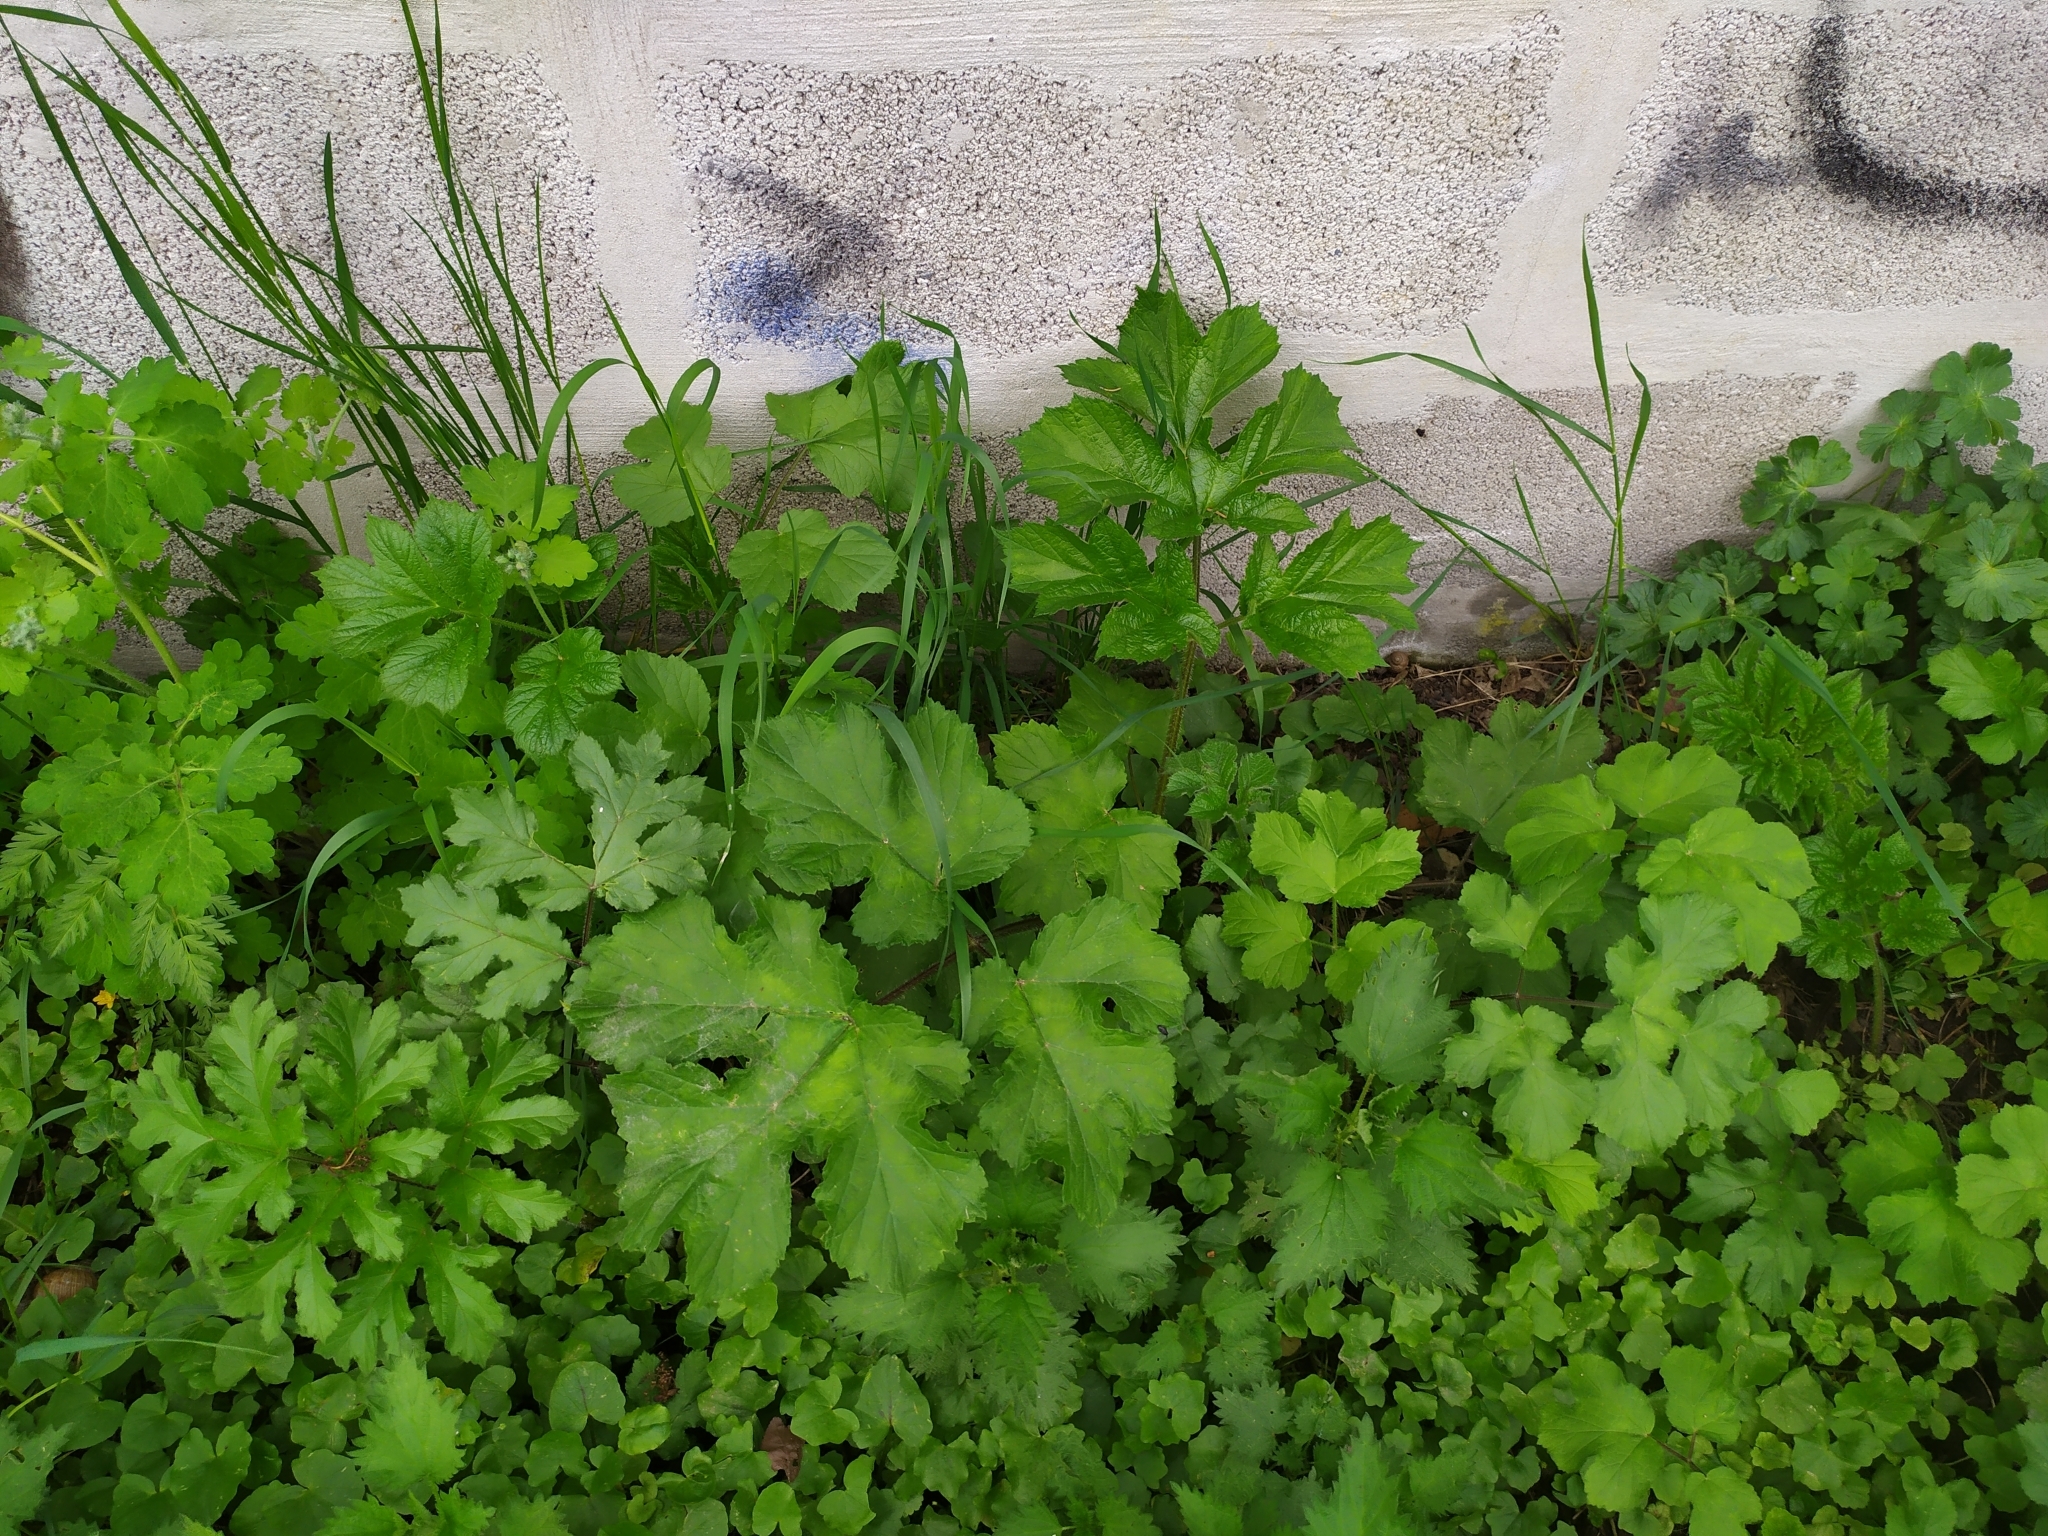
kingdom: Plantae
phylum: Tracheophyta
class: Magnoliopsida
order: Apiales
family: Apiaceae
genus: Heracleum
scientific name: Heracleum sphondylium
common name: Hogweed
